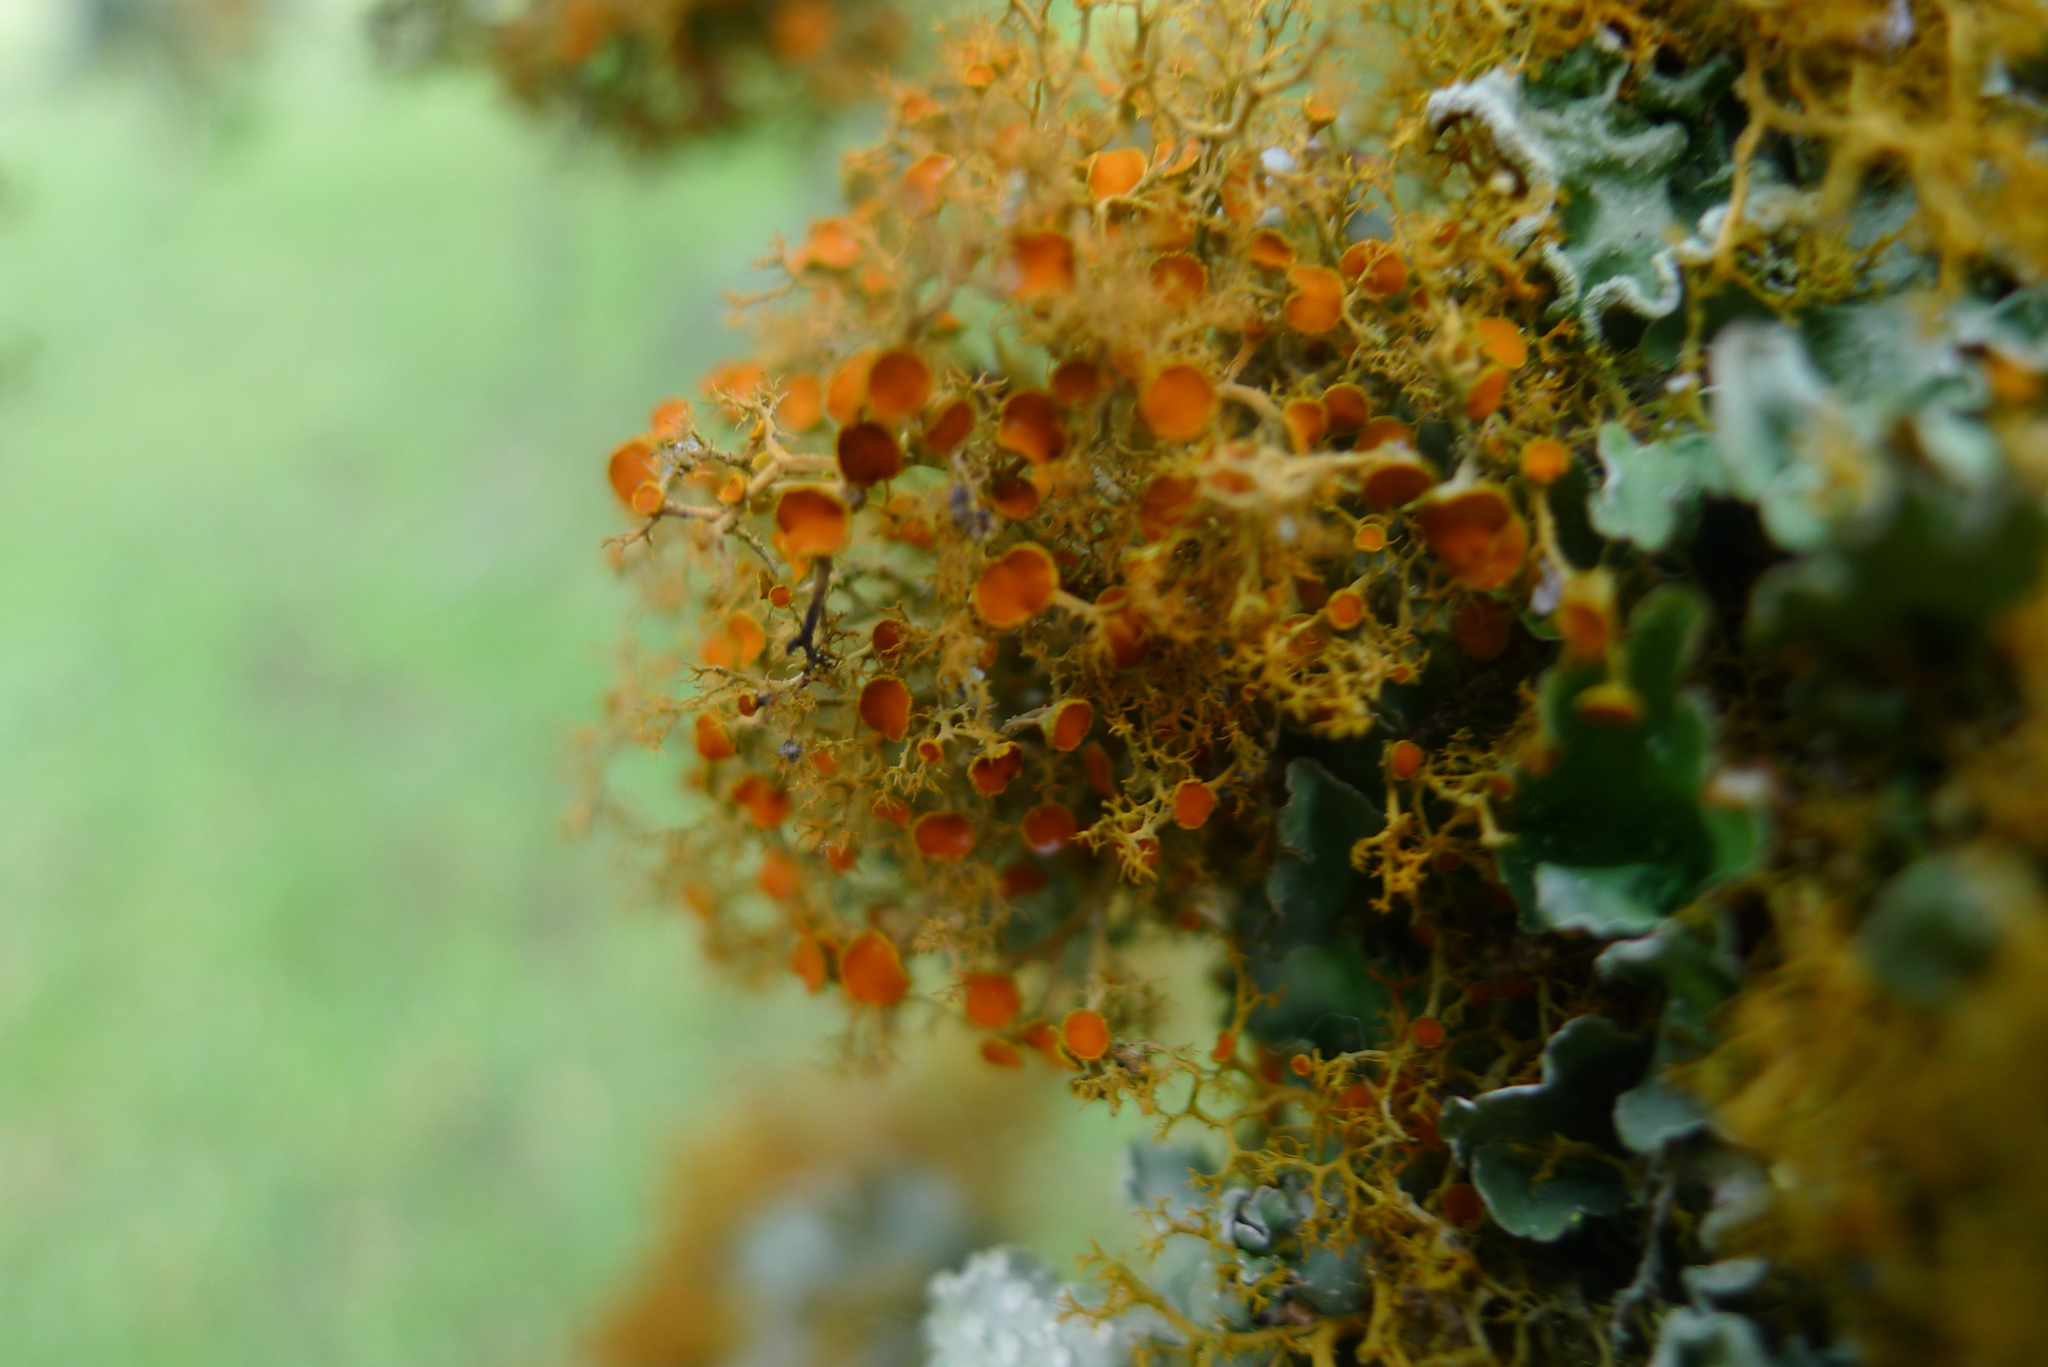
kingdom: Fungi
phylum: Ascomycota
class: Lecanoromycetes
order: Teloschistales
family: Teloschistaceae
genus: Teloschistes
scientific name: Teloschistes flavicans
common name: Golden hair-lichen
